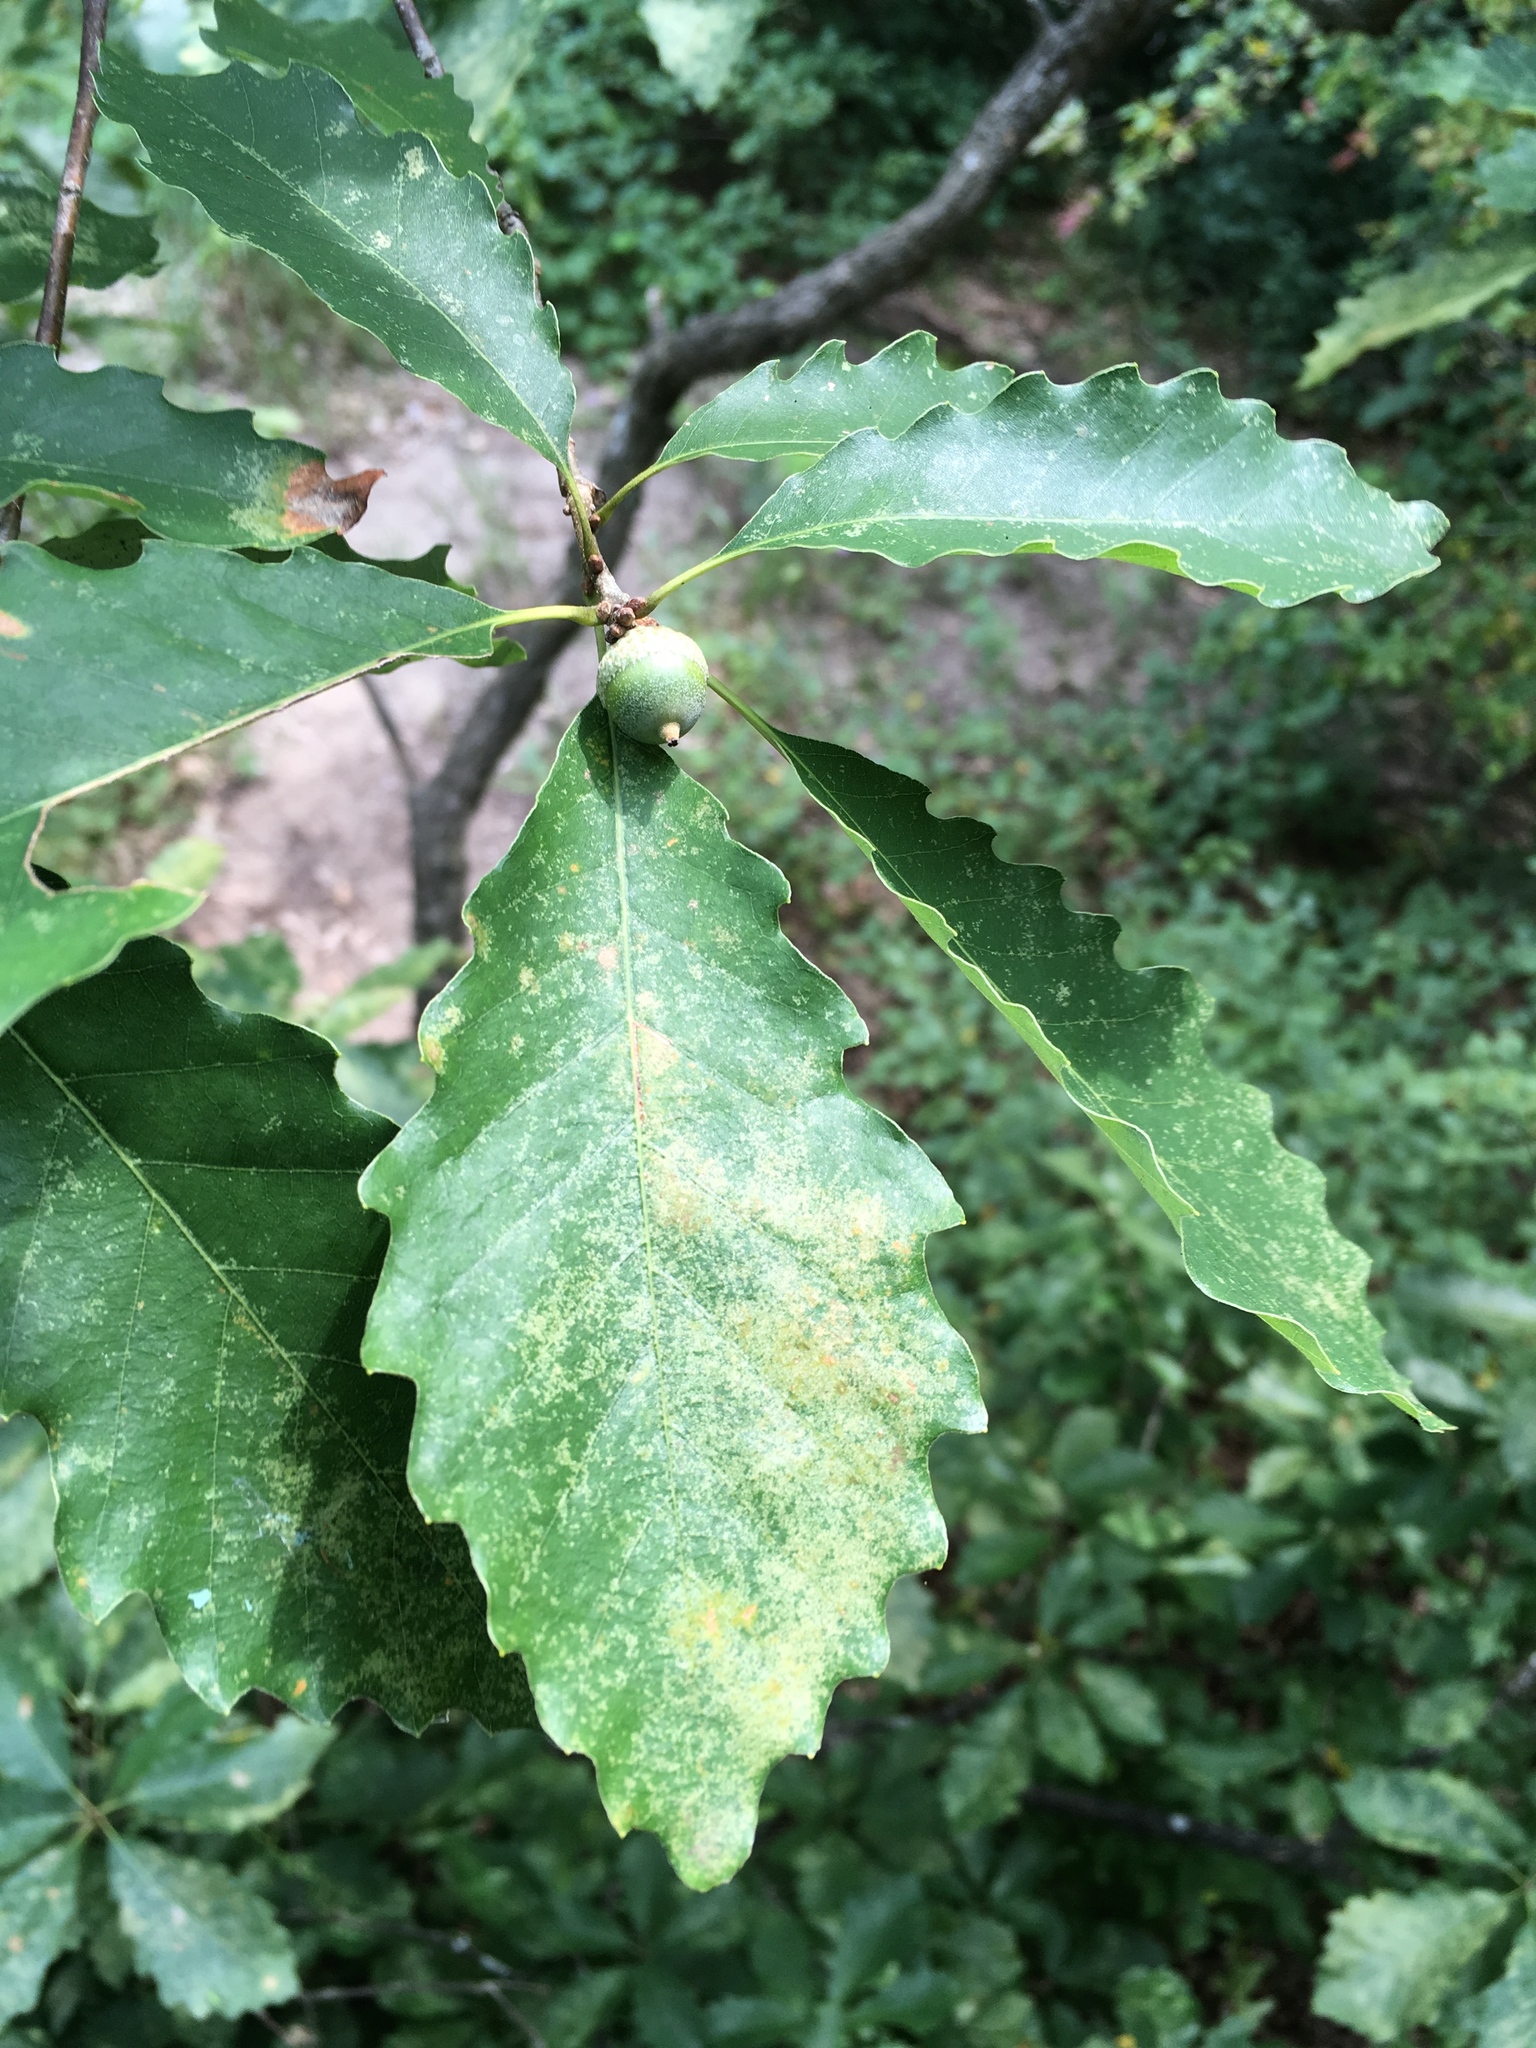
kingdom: Plantae
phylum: Tracheophyta
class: Magnoliopsida
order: Fagales
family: Fagaceae
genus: Quercus
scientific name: Quercus muehlenbergii
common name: Chinkapin oak
